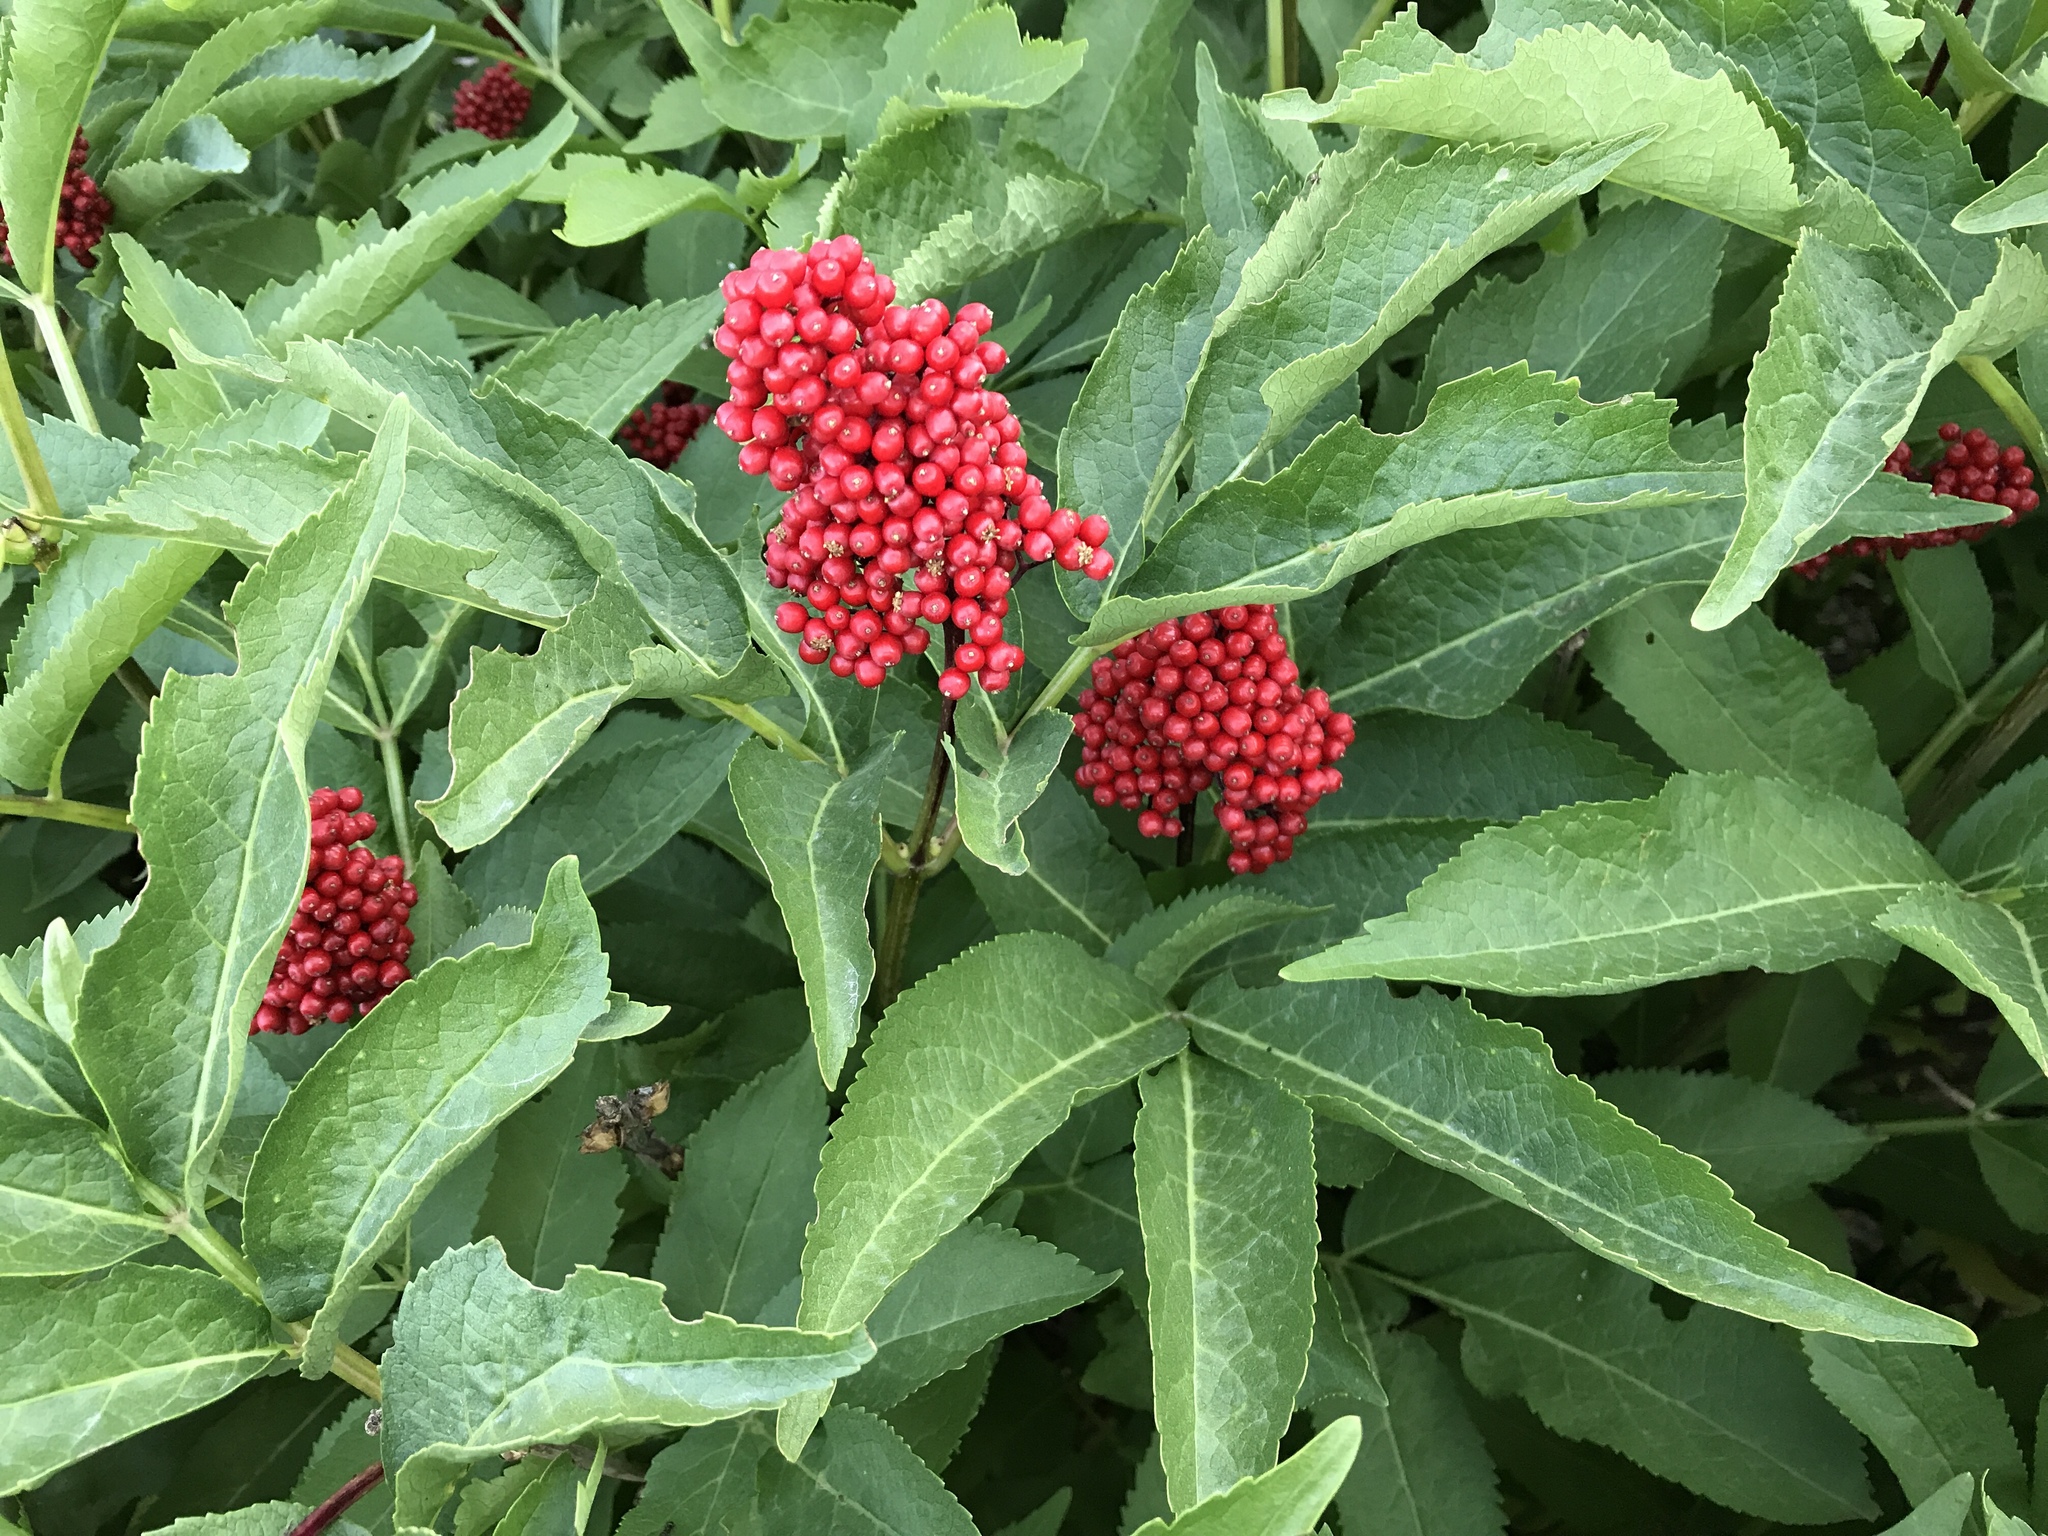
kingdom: Plantae
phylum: Tracheophyta
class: Magnoliopsida
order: Dipsacales
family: Viburnaceae
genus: Sambucus
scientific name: Sambucus racemosa
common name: Red-berried elder
